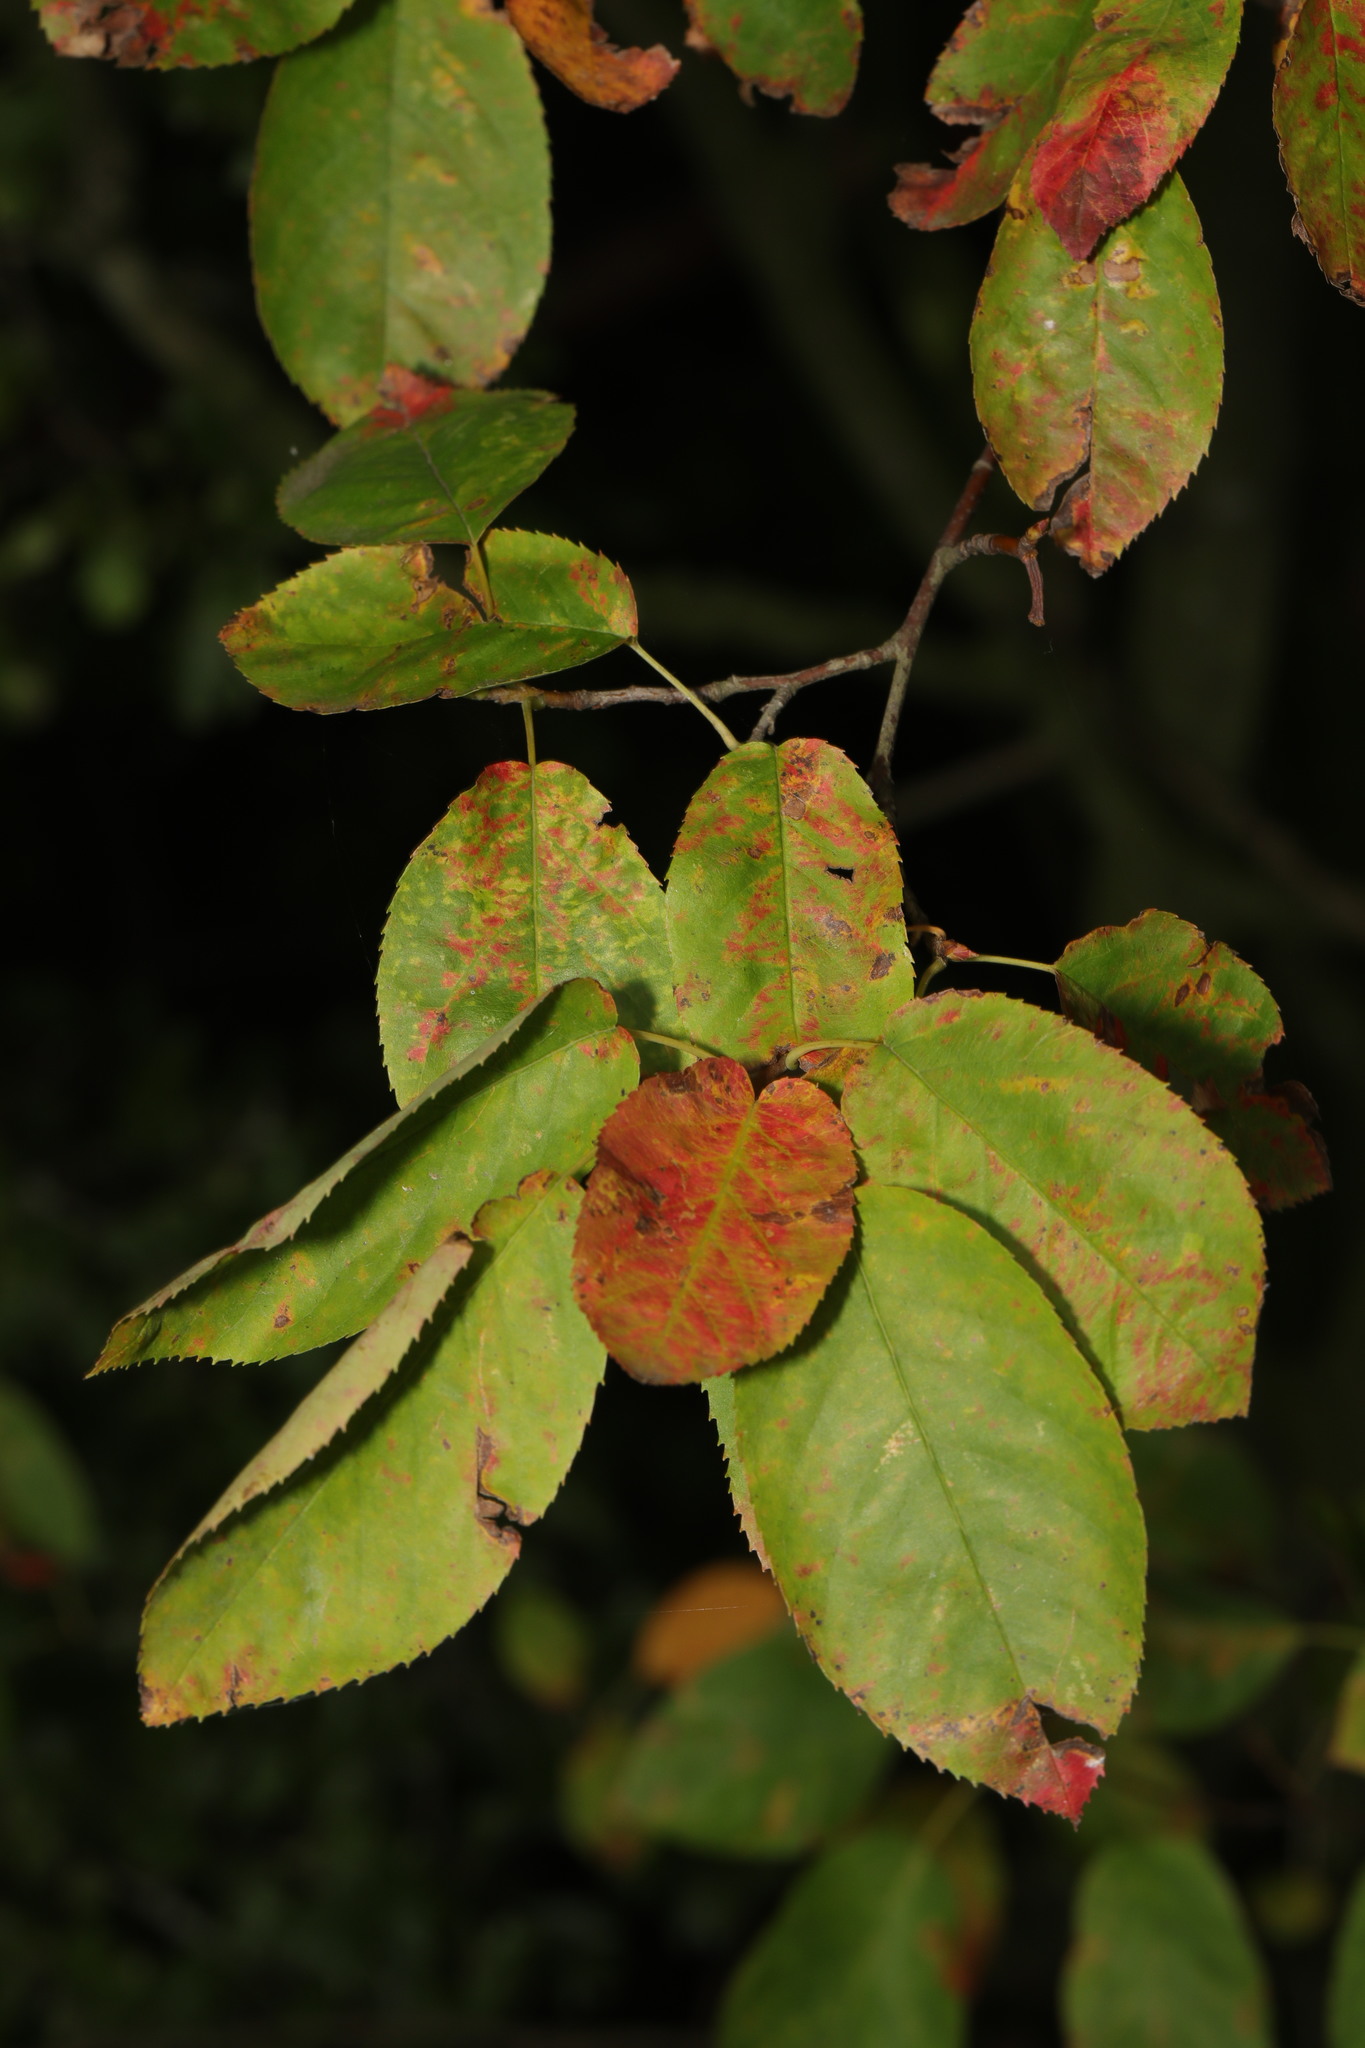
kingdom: Plantae
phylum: Tracheophyta
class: Magnoliopsida
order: Rosales
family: Rosaceae
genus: Amelanchier
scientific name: Amelanchier lamarckii
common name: Juneberry
